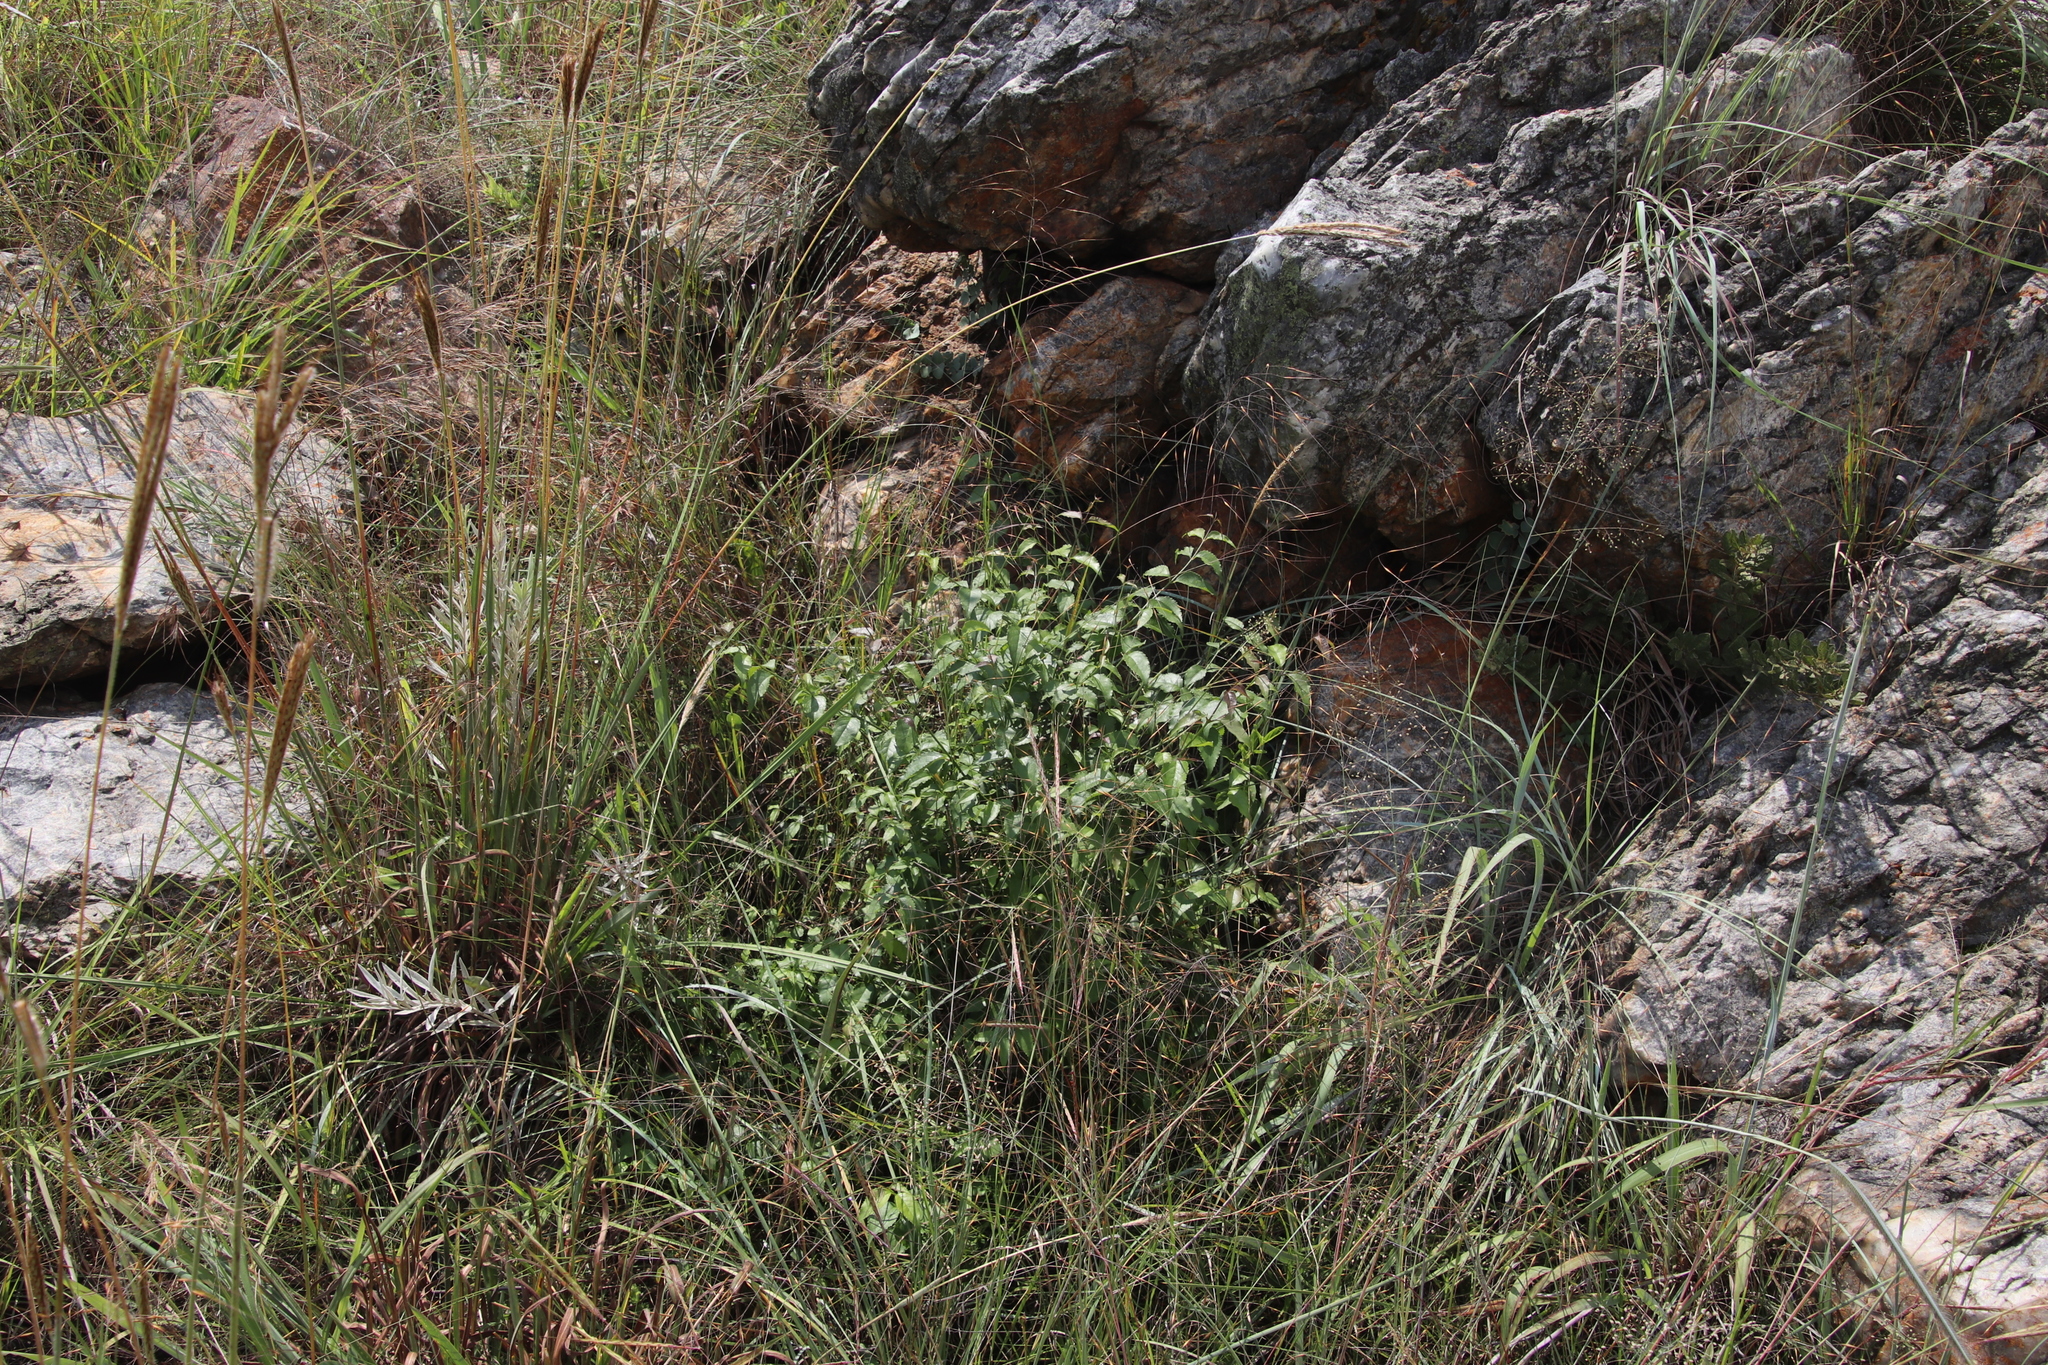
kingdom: Plantae
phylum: Tracheophyta
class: Magnoliopsida
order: Lamiales
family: Stilbaceae
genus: Halleria
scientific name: Halleria lucida
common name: Tree fuschia
